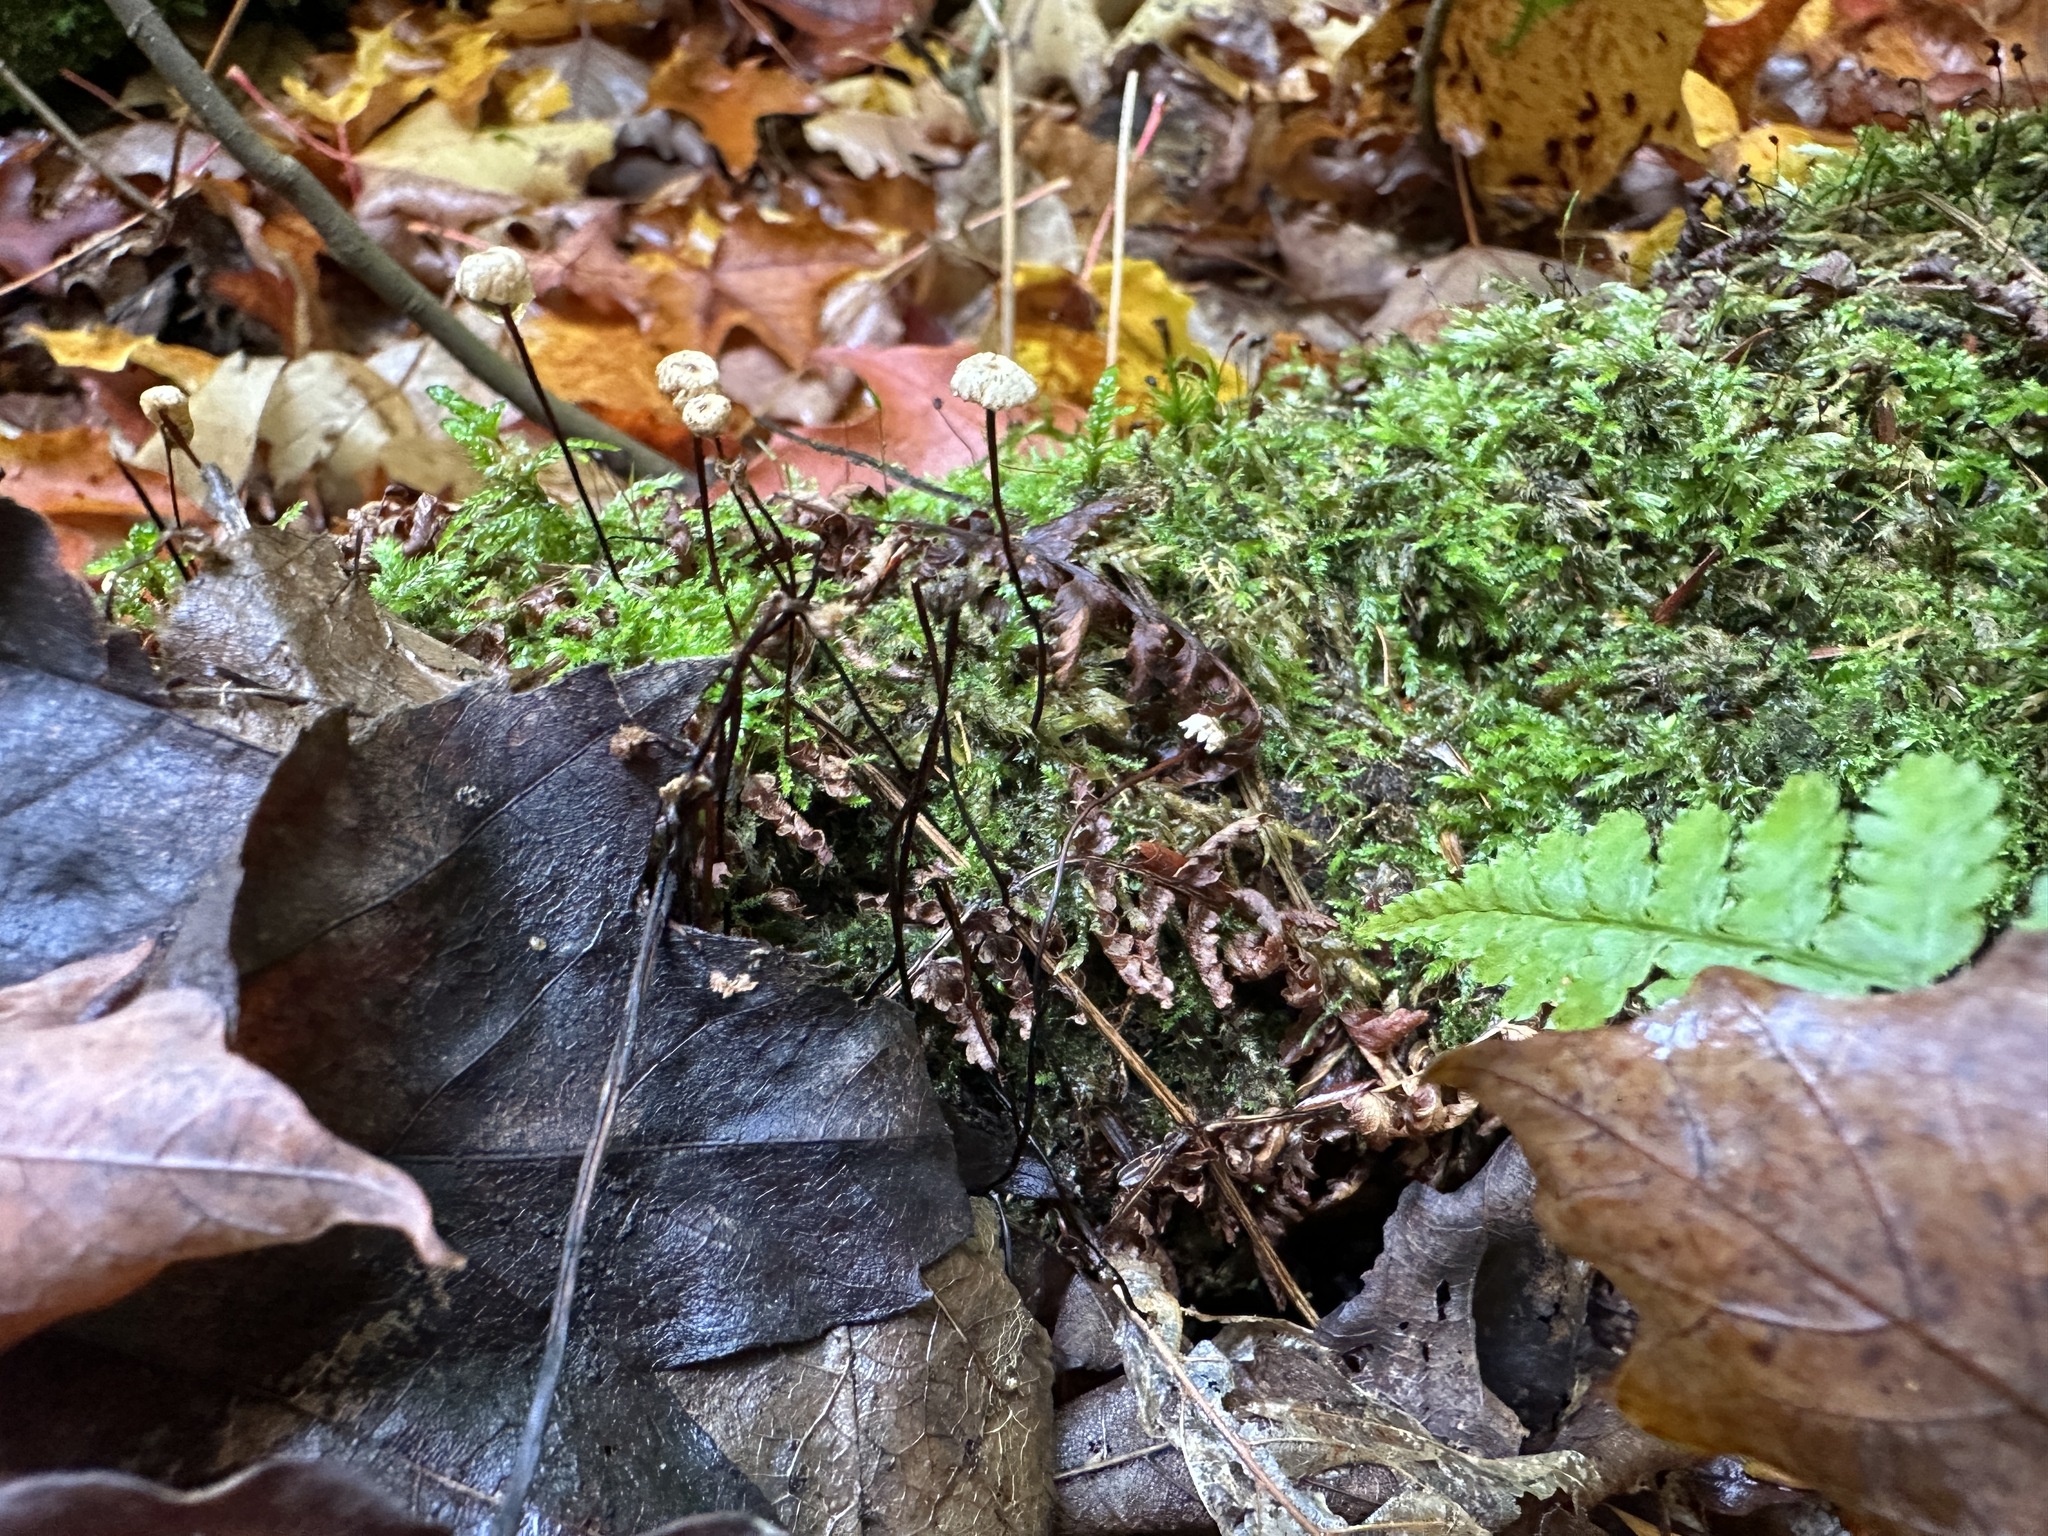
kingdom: Fungi
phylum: Basidiomycota
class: Agaricomycetes
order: Agaricales
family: Omphalotaceae
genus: Gymnopus
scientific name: Gymnopus androsaceus
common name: Horse-hair fungus
